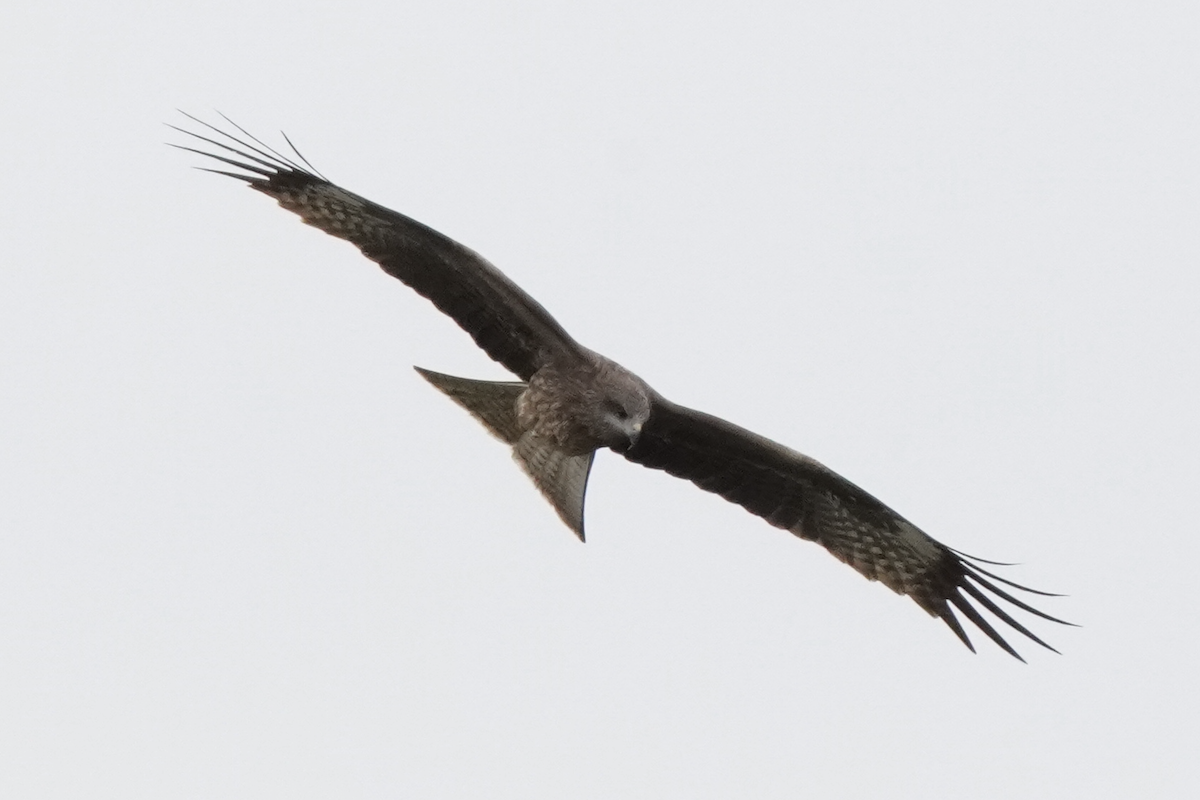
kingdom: Animalia
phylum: Chordata
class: Aves
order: Accipitriformes
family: Accipitridae
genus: Milvus
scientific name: Milvus migrans
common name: Black kite
